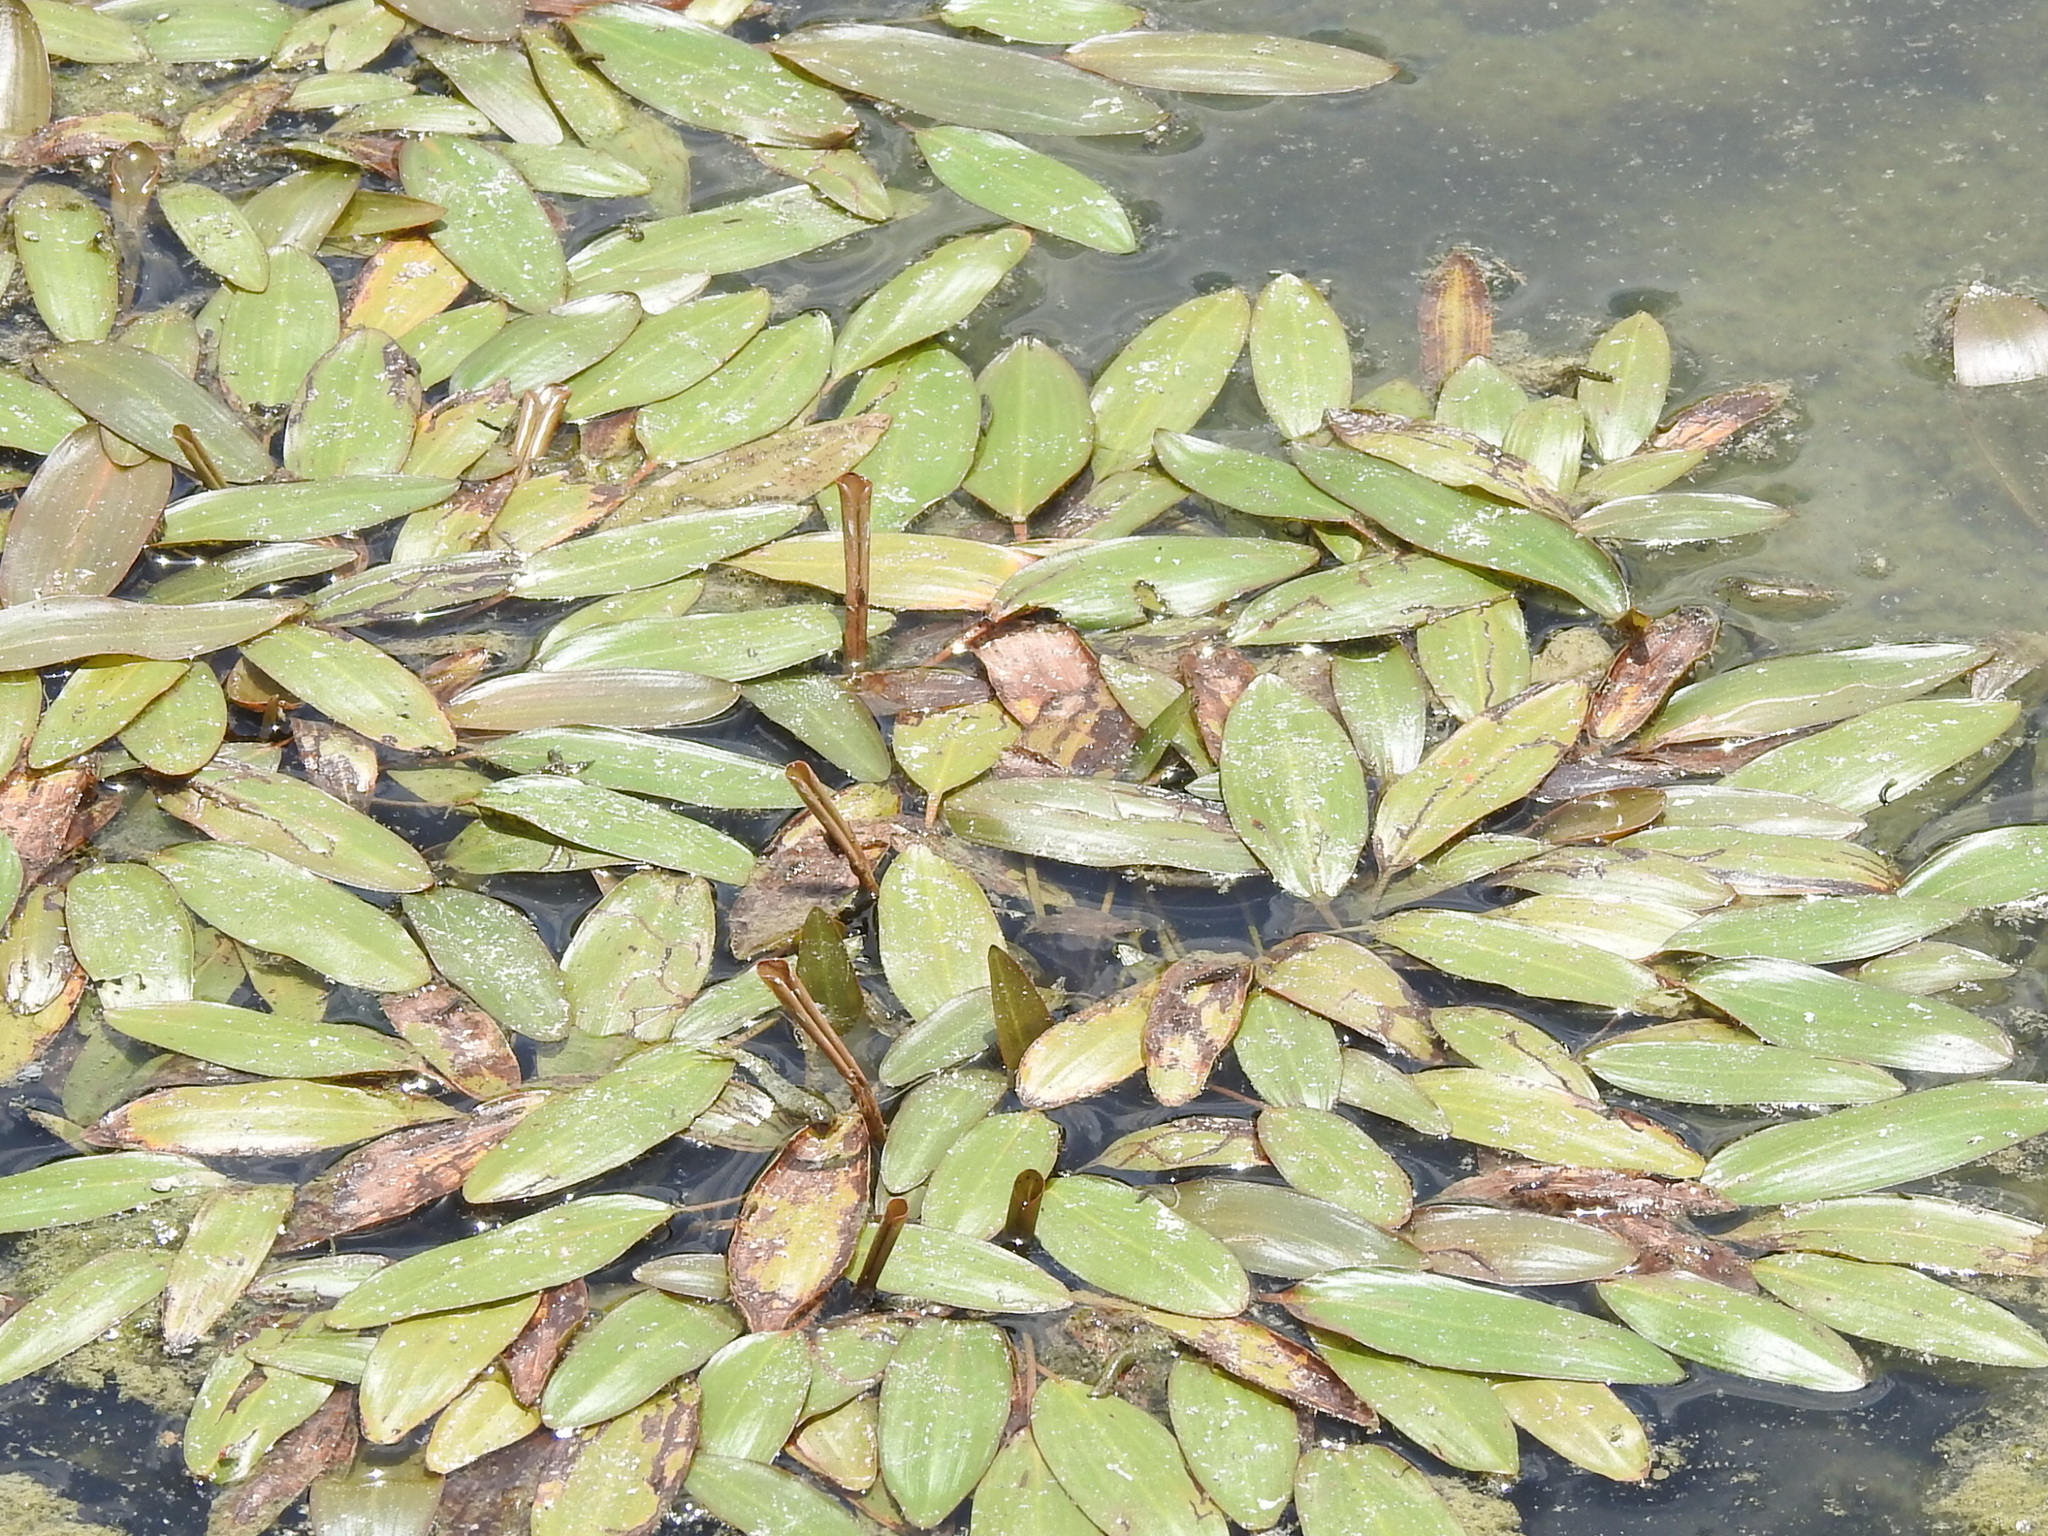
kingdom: Plantae
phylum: Tracheophyta
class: Liliopsida
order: Alismatales
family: Potamogetonaceae
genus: Potamogeton
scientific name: Potamogeton nodosus
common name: Loddon pondweed
